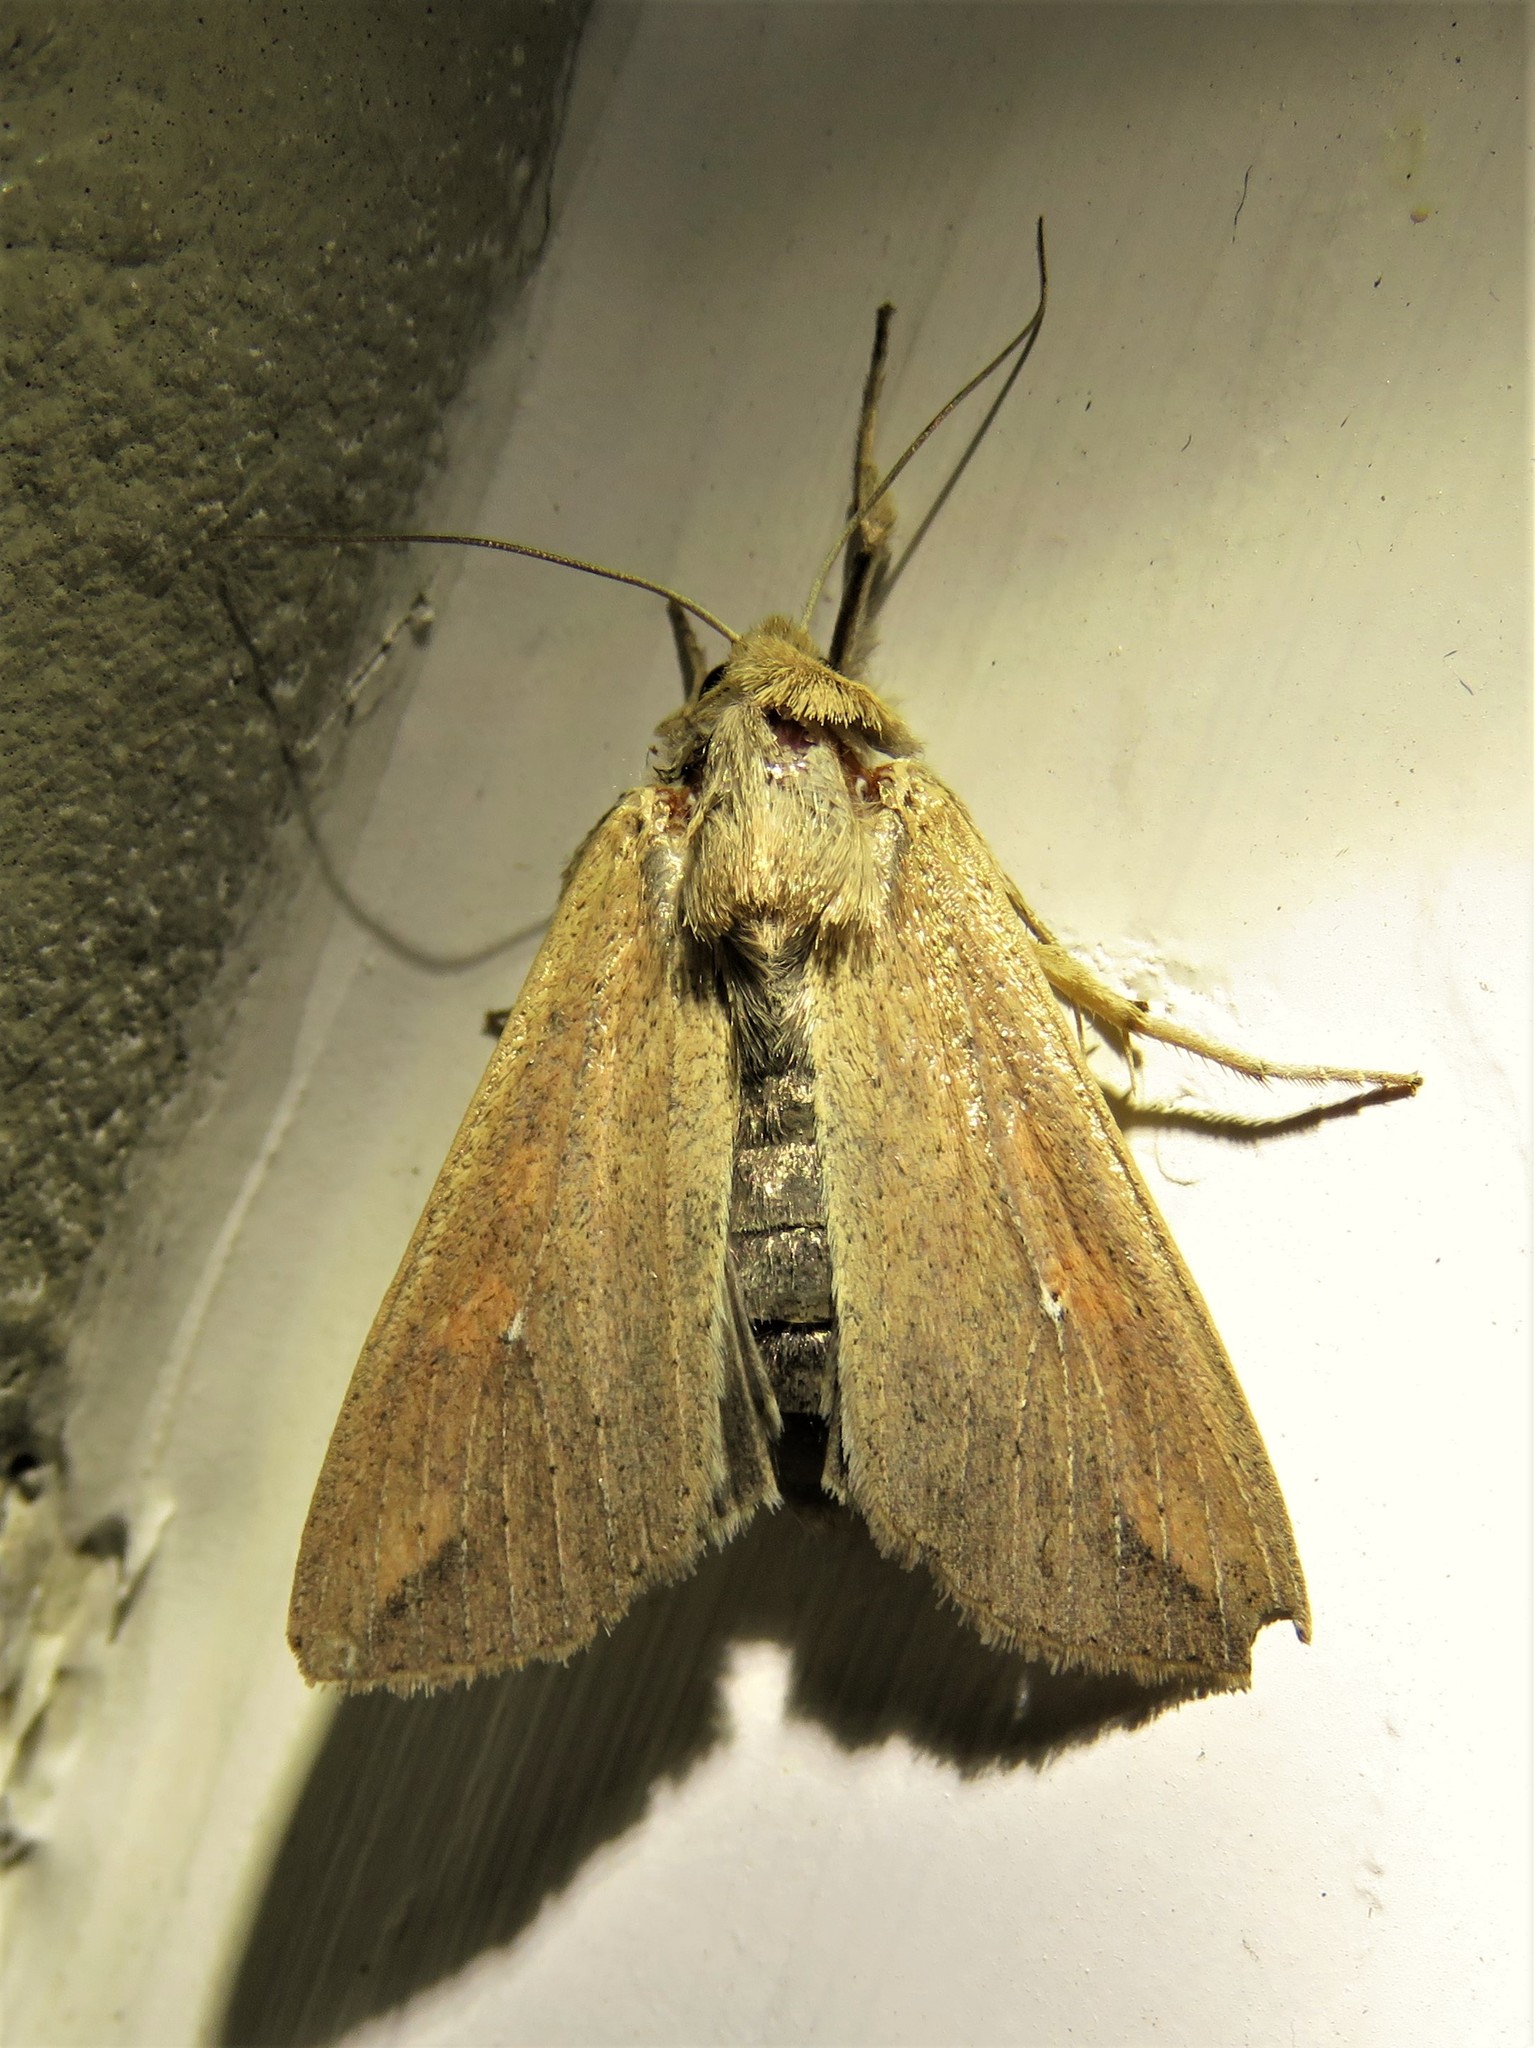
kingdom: Animalia
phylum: Arthropoda
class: Insecta
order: Lepidoptera
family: Noctuidae
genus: Mythimna
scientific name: Mythimna unipuncta
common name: White-speck
